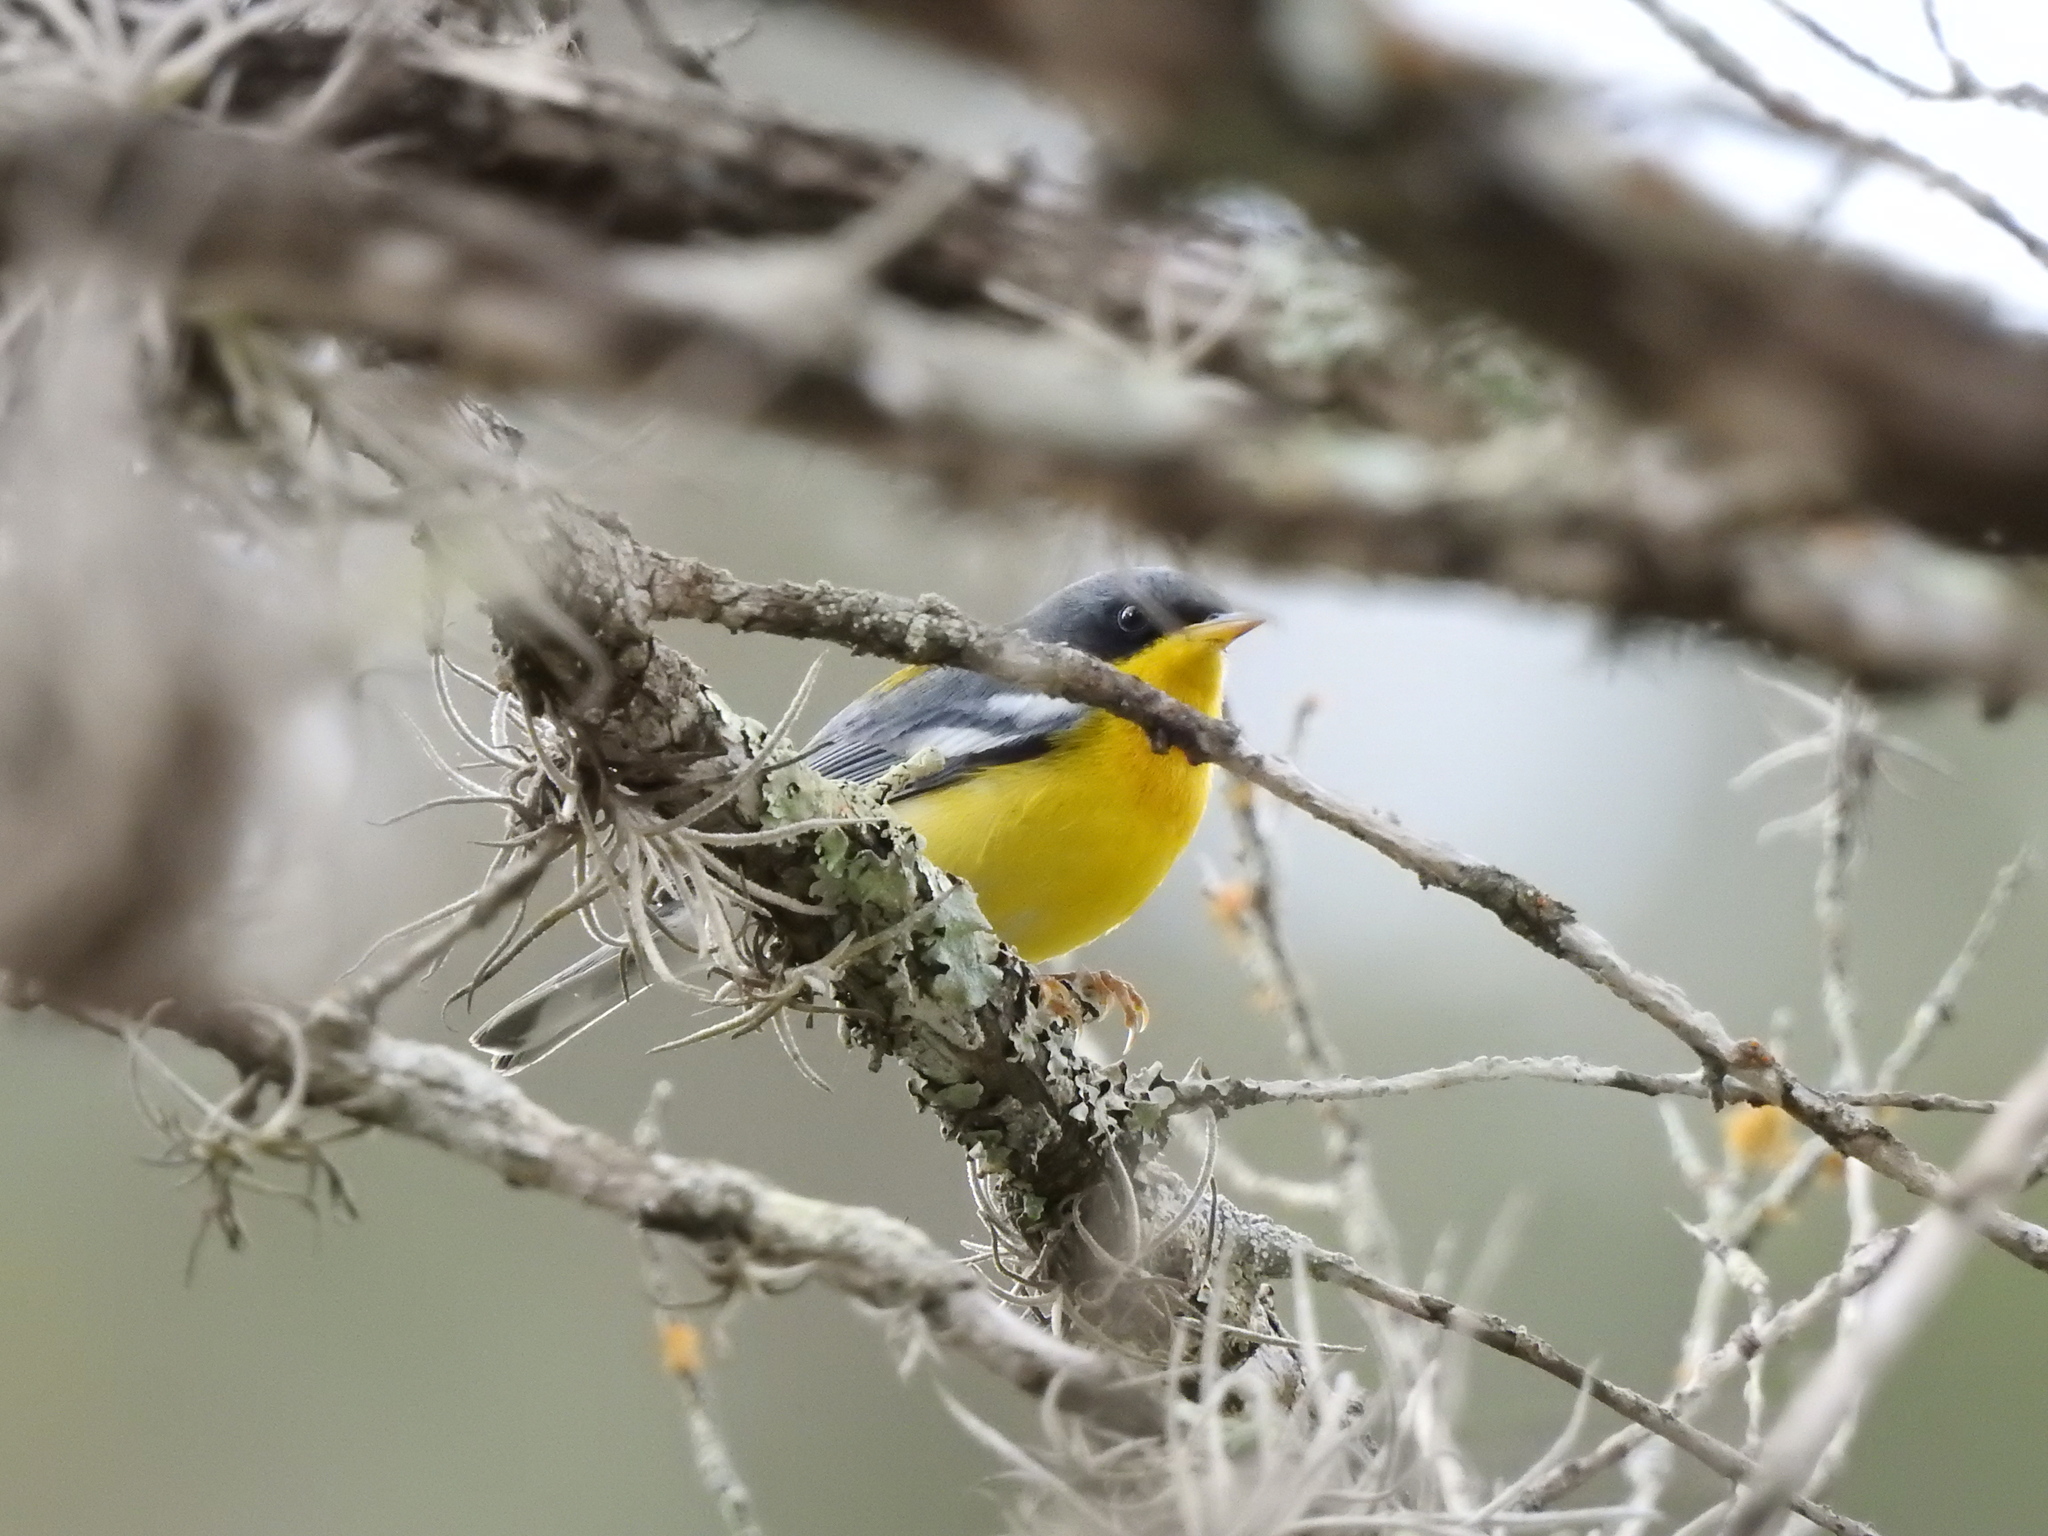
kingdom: Animalia
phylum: Chordata
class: Aves
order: Passeriformes
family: Parulidae
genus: Setophaga
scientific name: Setophaga pitiayumi
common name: Tropical parula
